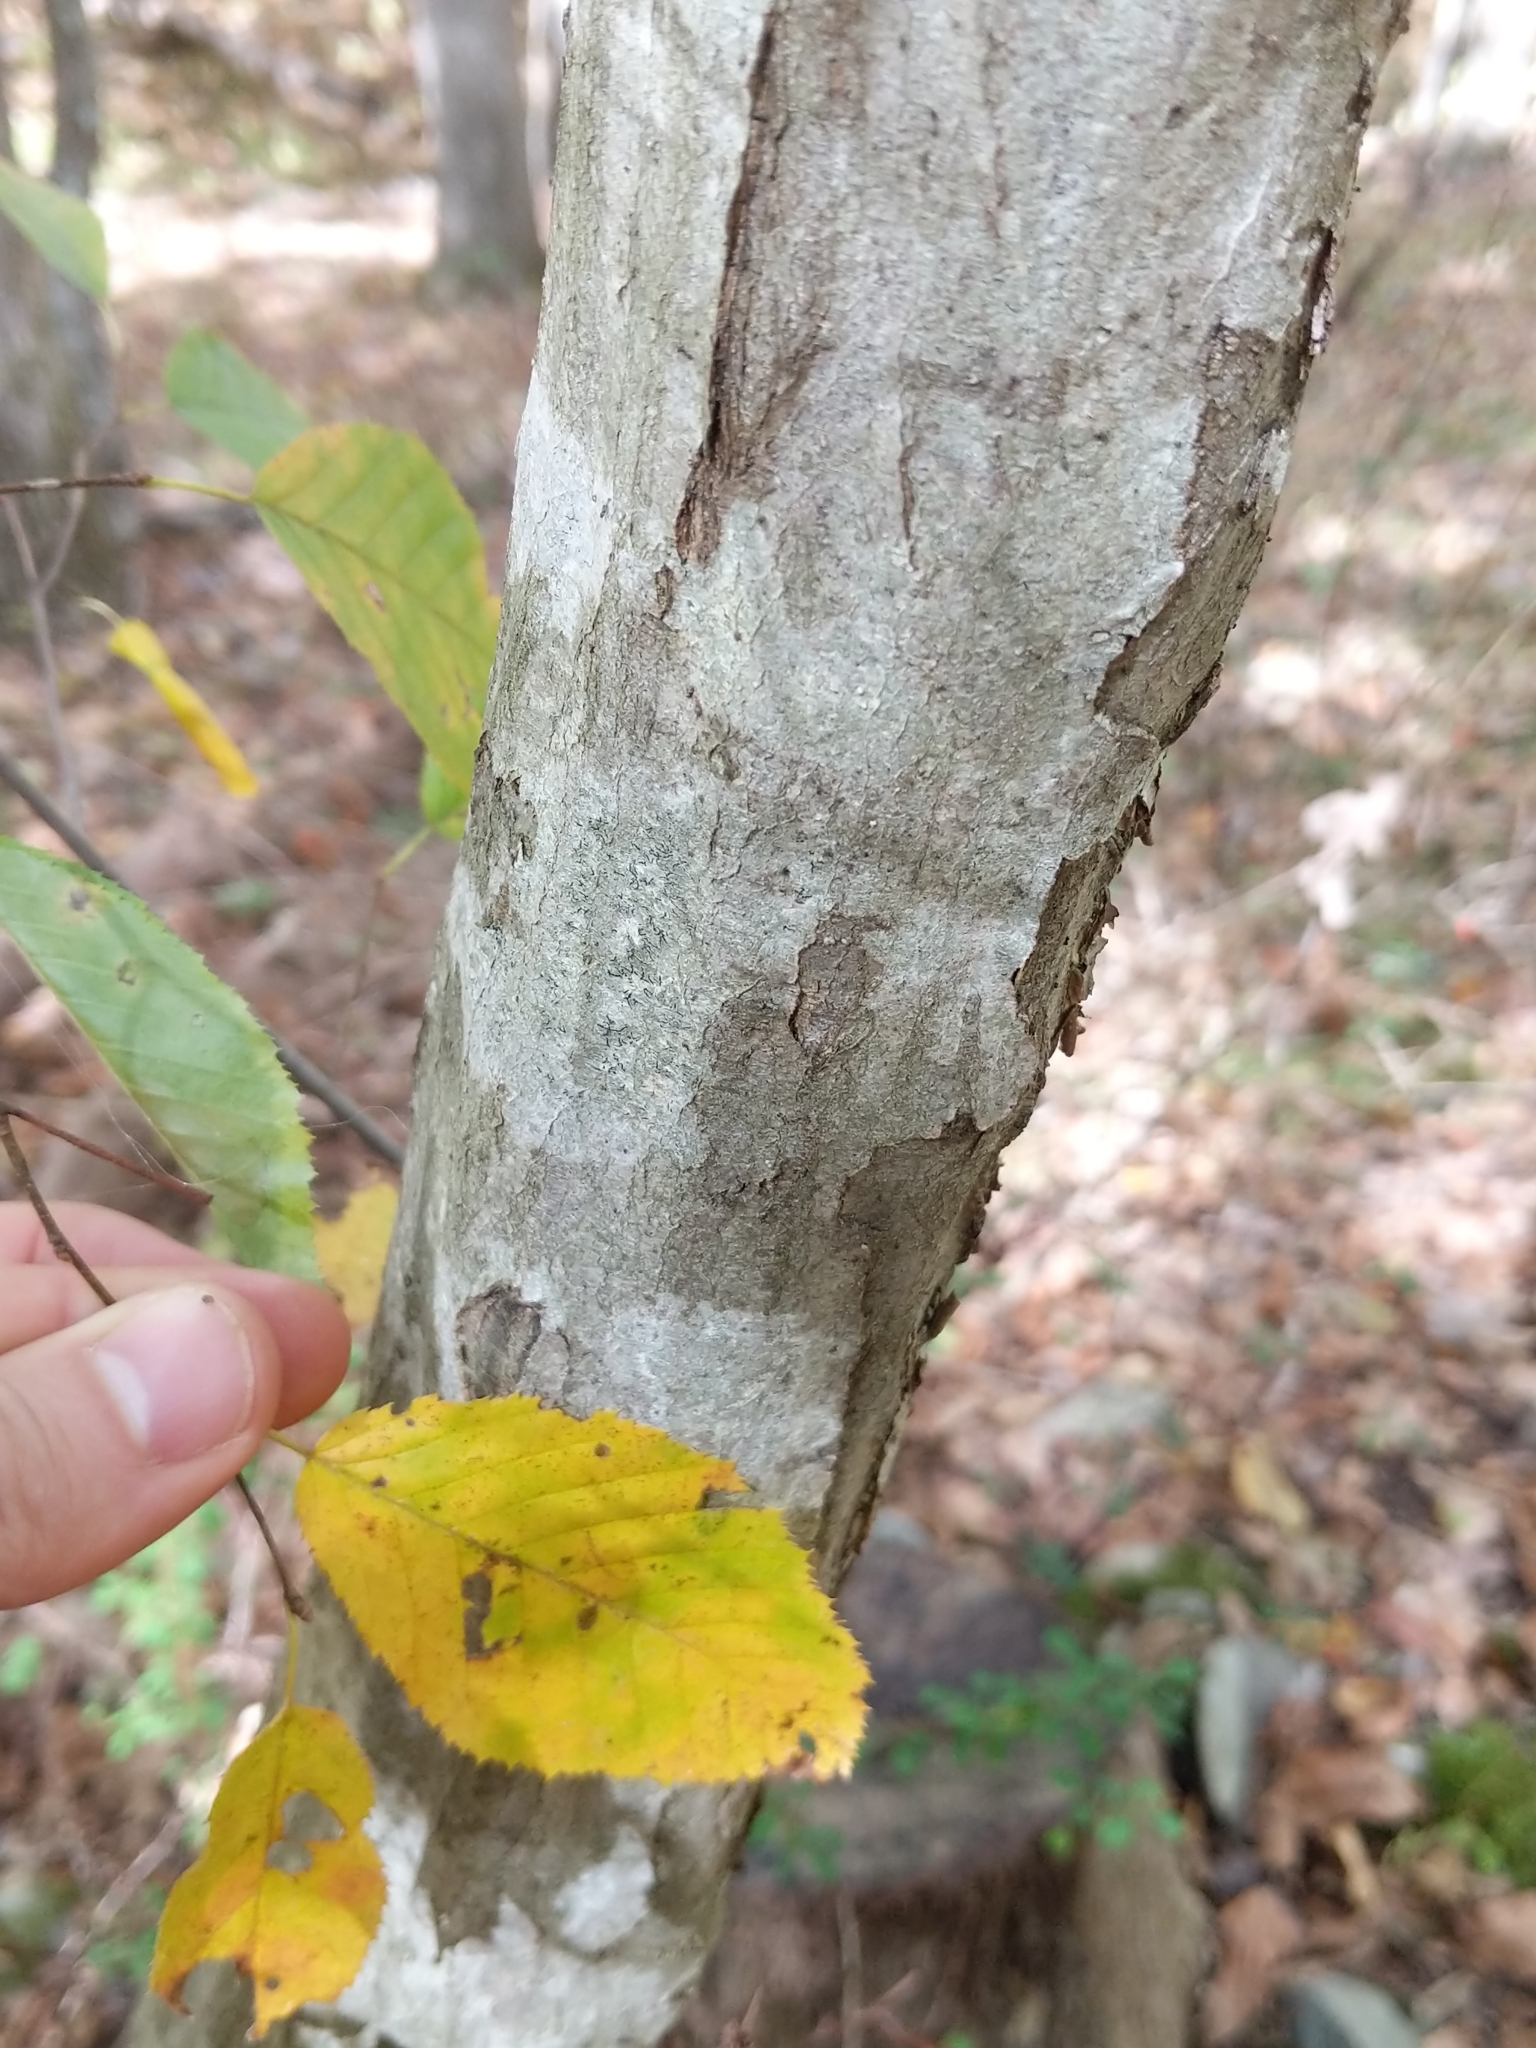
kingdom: Plantae
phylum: Tracheophyta
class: Magnoliopsida
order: Fagales
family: Betulaceae
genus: Carpinus
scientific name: Carpinus caroliniana
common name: American hornbeam
